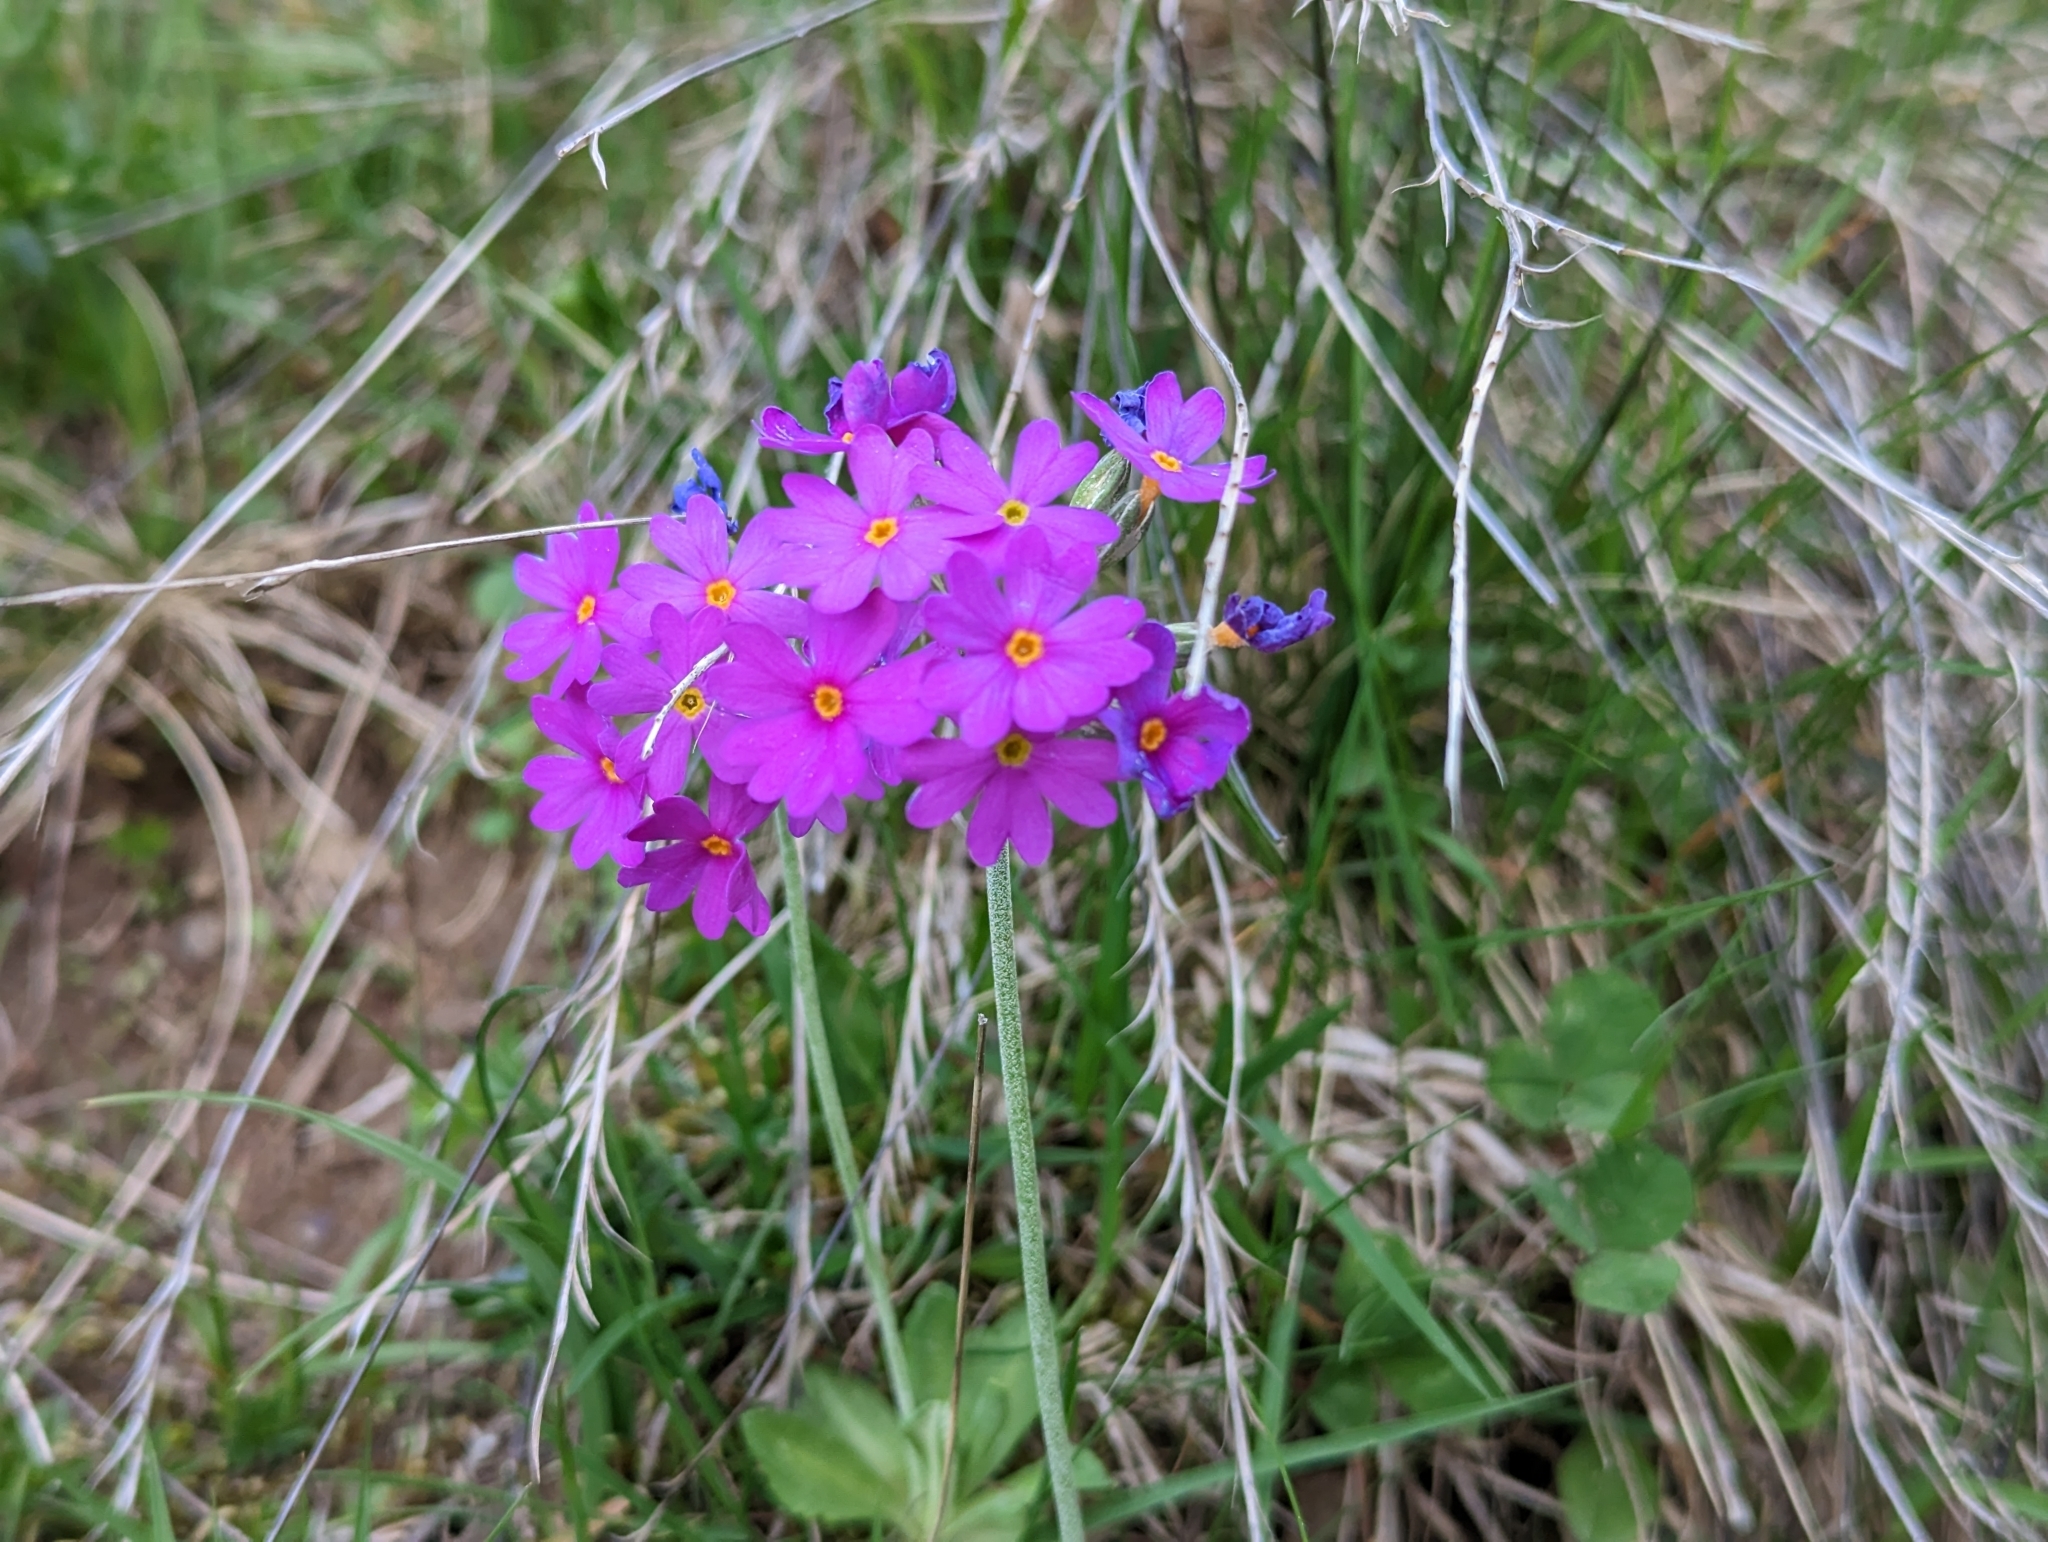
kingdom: Plantae
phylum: Tracheophyta
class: Magnoliopsida
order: Ericales
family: Primulaceae
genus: Primula
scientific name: Primula farinosa
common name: Bird's-eye primrose
